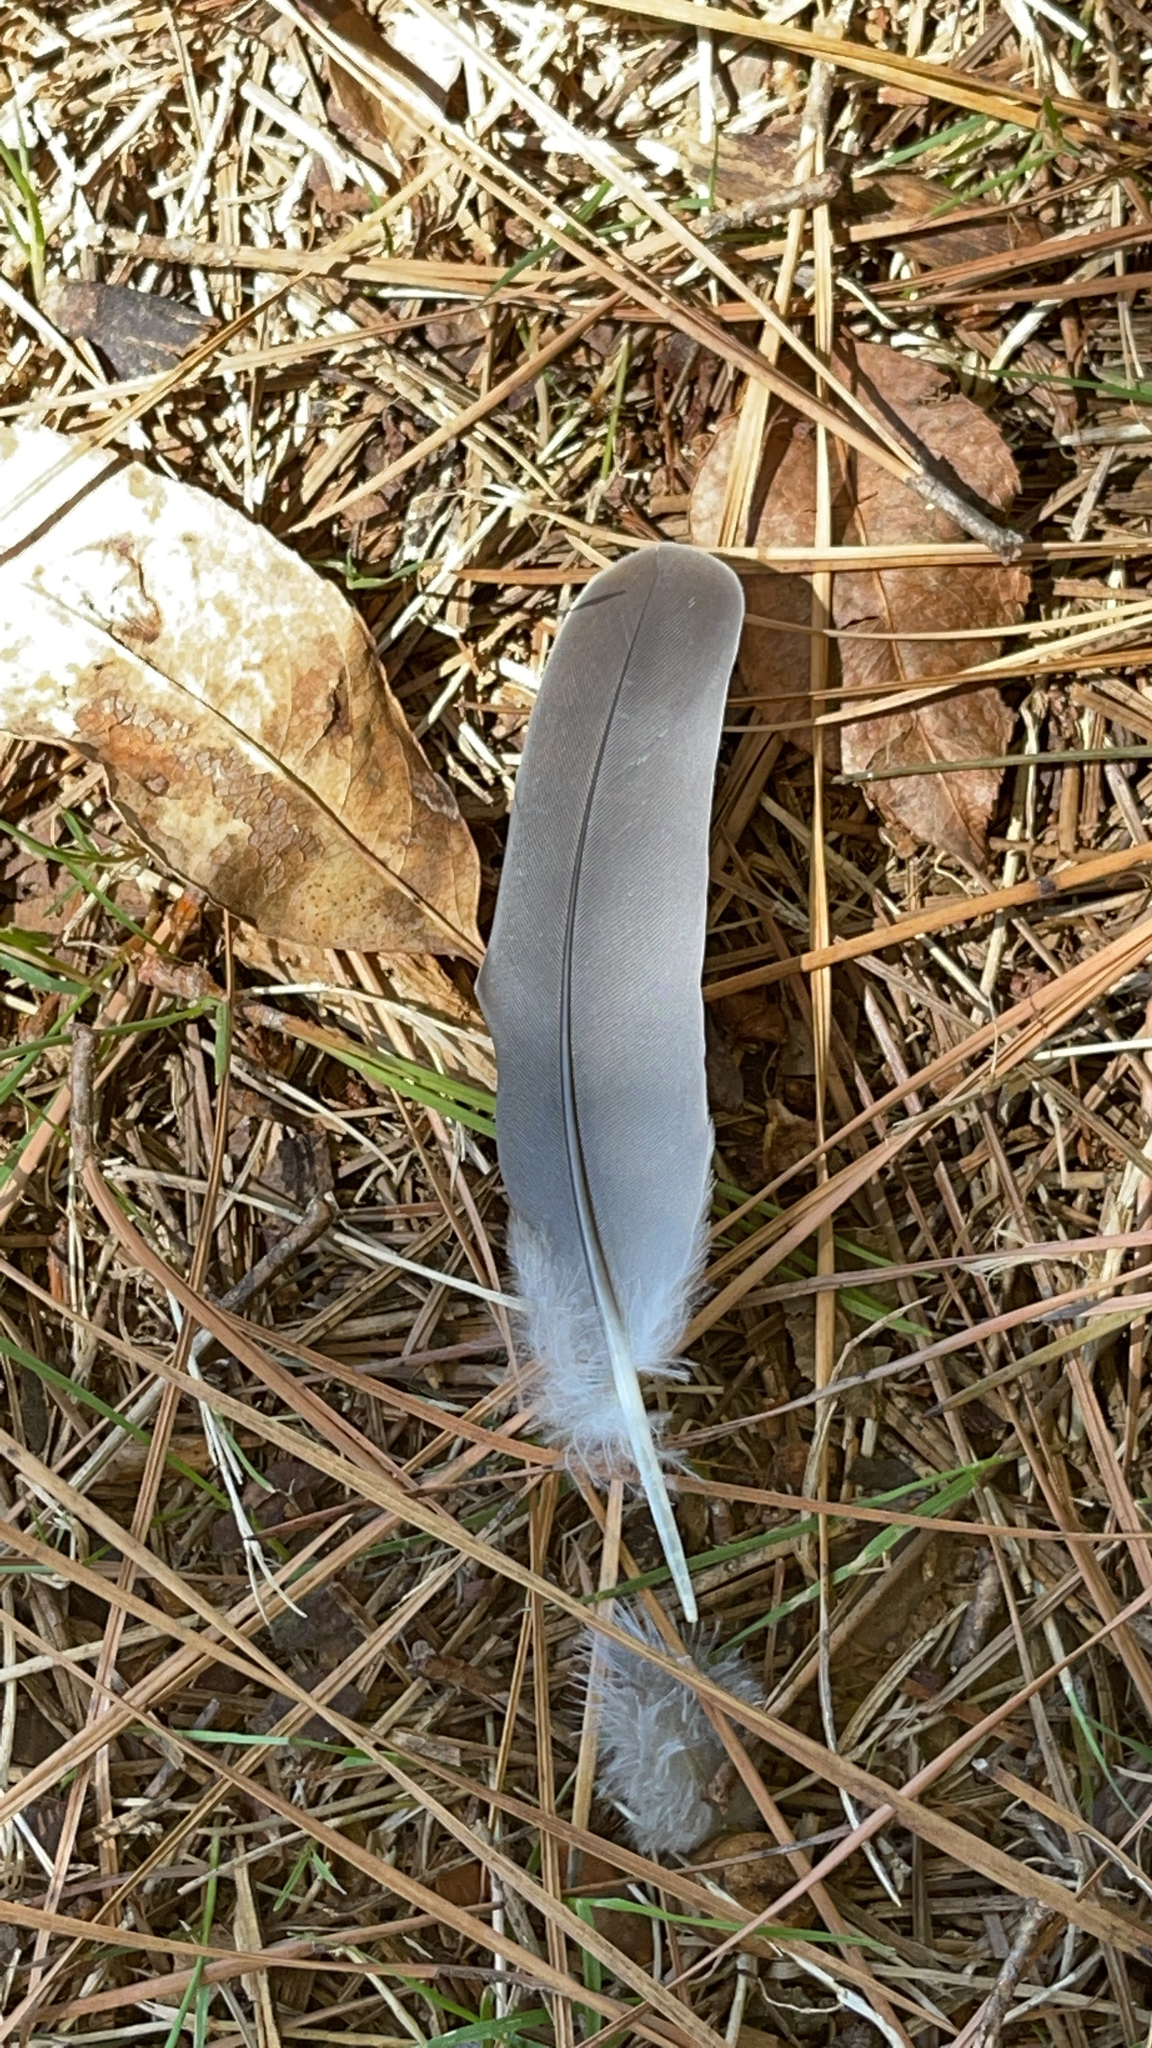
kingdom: Animalia
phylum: Chordata
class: Aves
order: Columbiformes
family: Columbidae
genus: Zenaida
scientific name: Zenaida macroura
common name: Mourning dove
